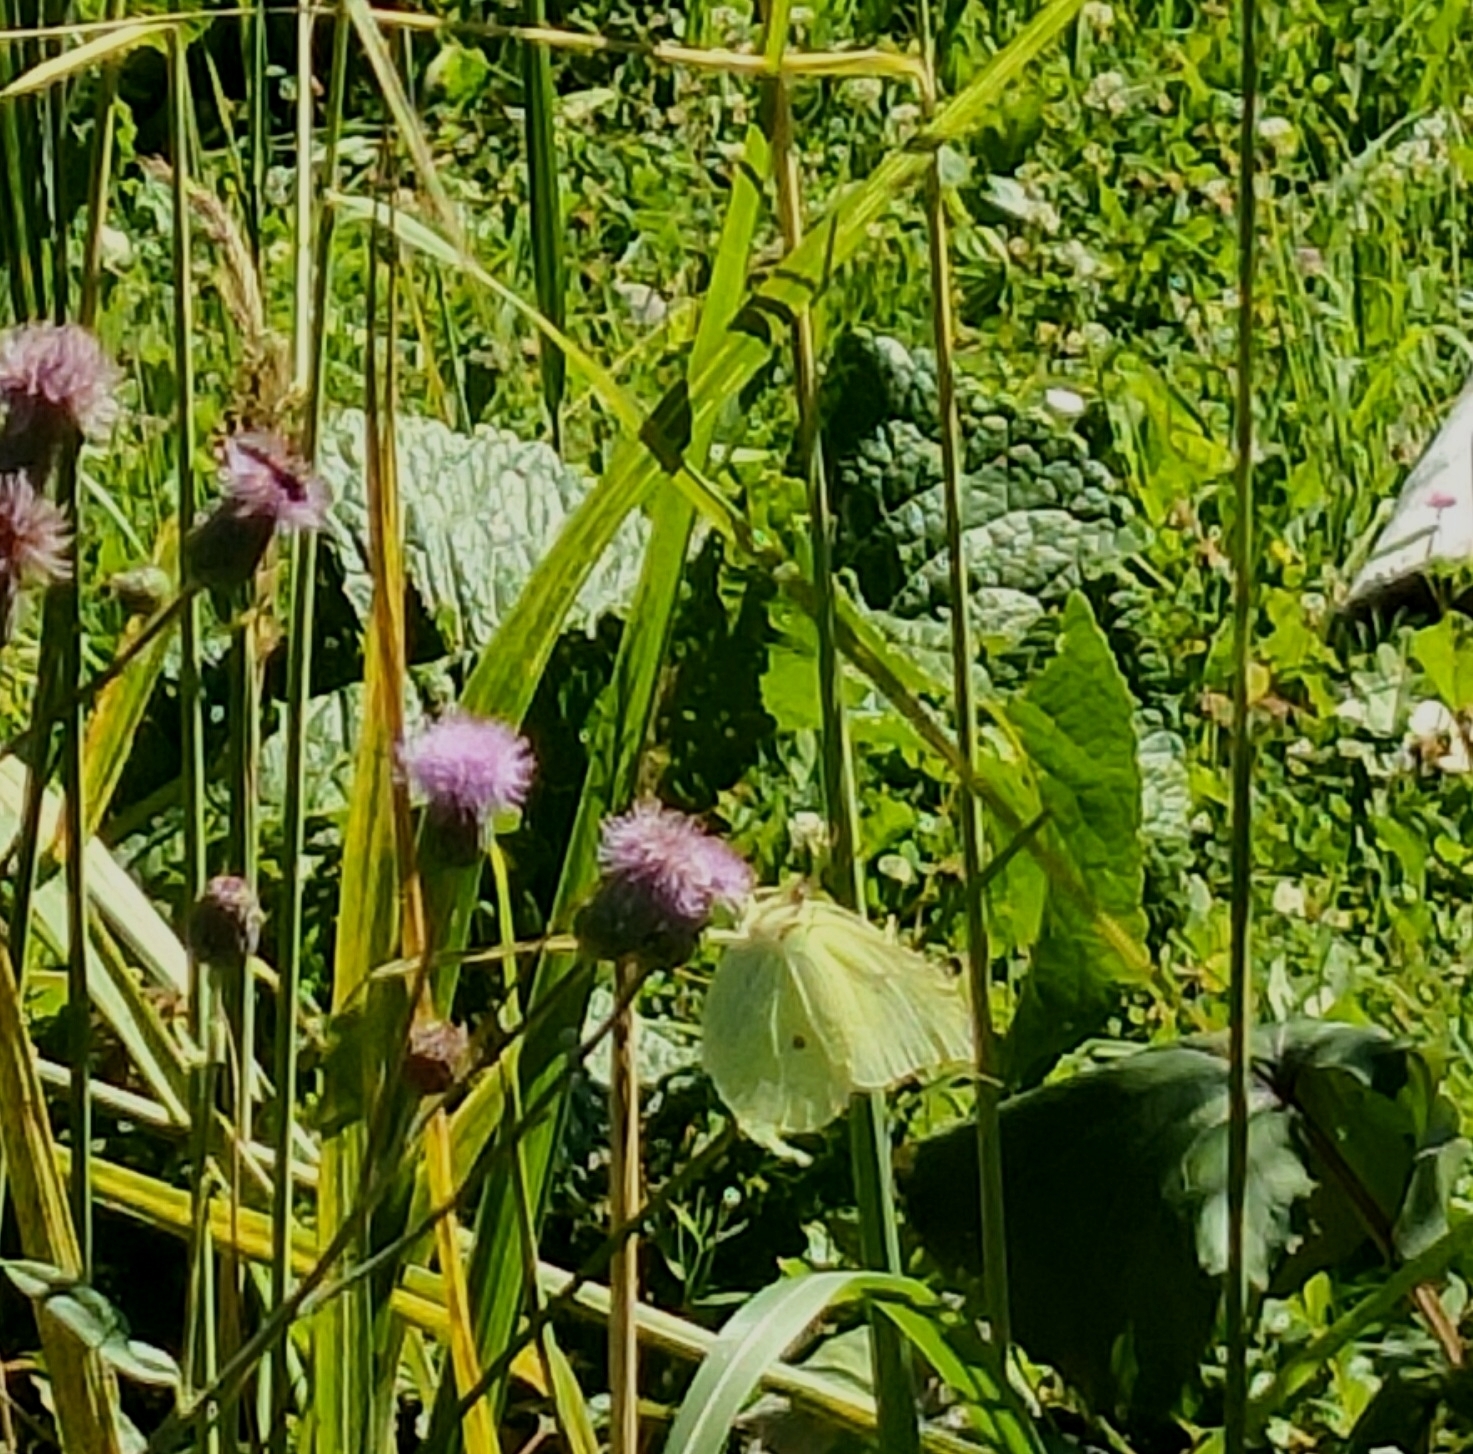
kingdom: Animalia
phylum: Arthropoda
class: Insecta
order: Lepidoptera
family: Pieridae
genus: Gonepteryx
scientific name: Gonepteryx rhamni
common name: Brimstone
